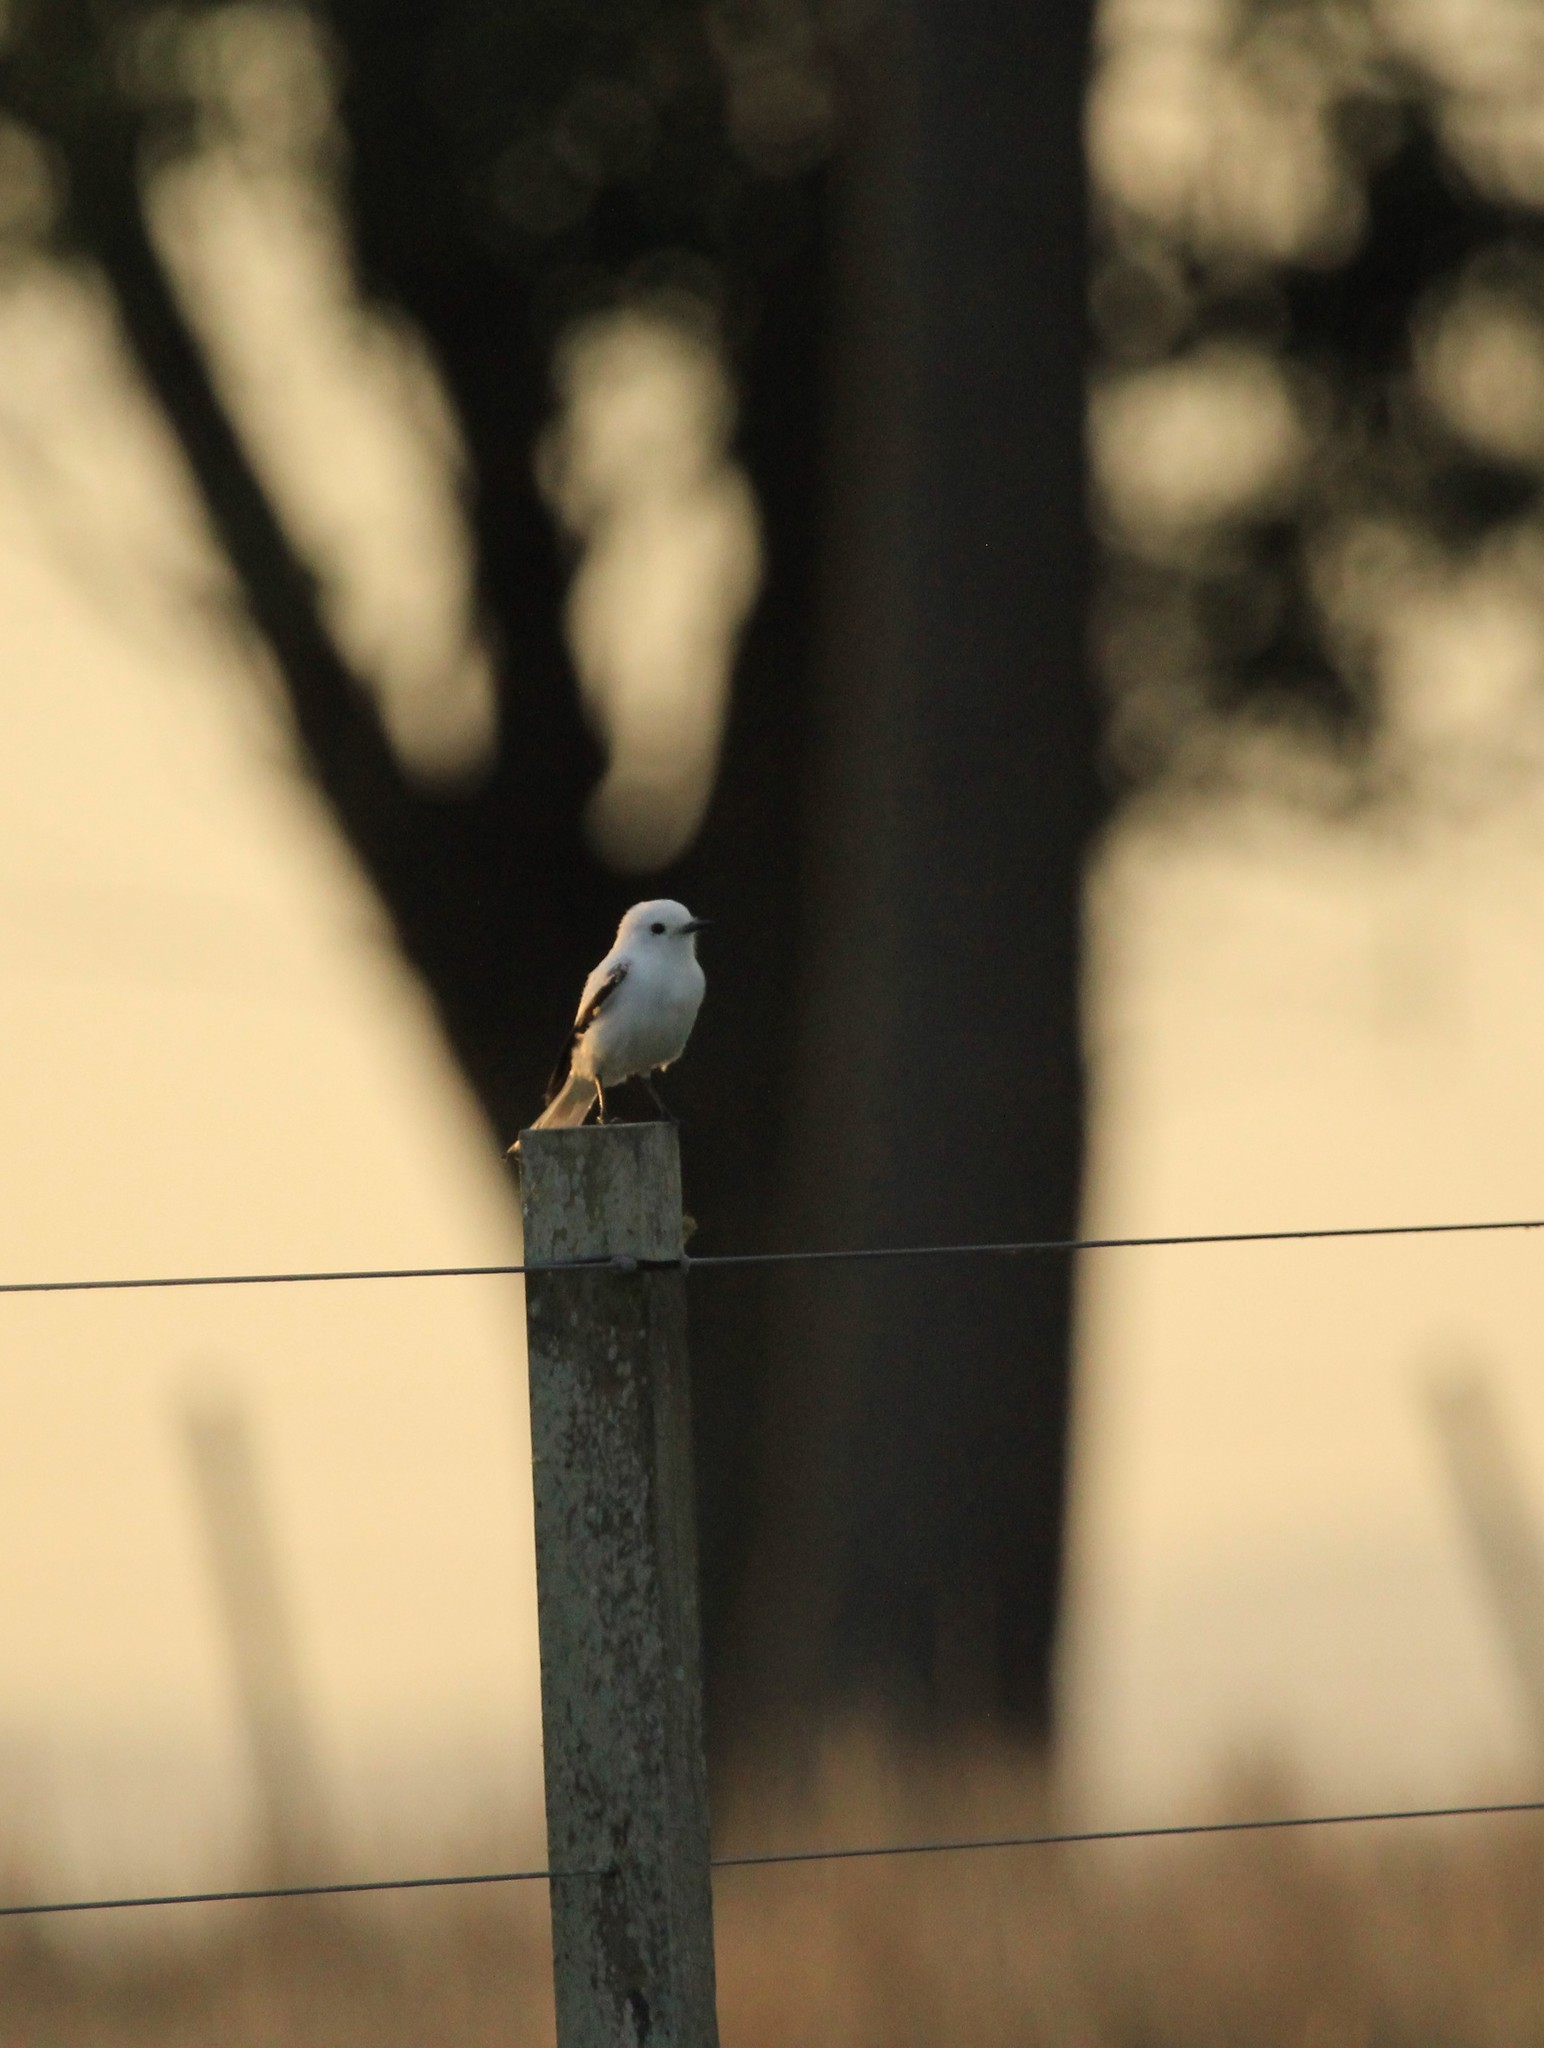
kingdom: Animalia
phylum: Chordata
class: Aves
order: Passeriformes
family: Tyrannidae
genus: Xolmis
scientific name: Xolmis irupero
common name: White monjita
